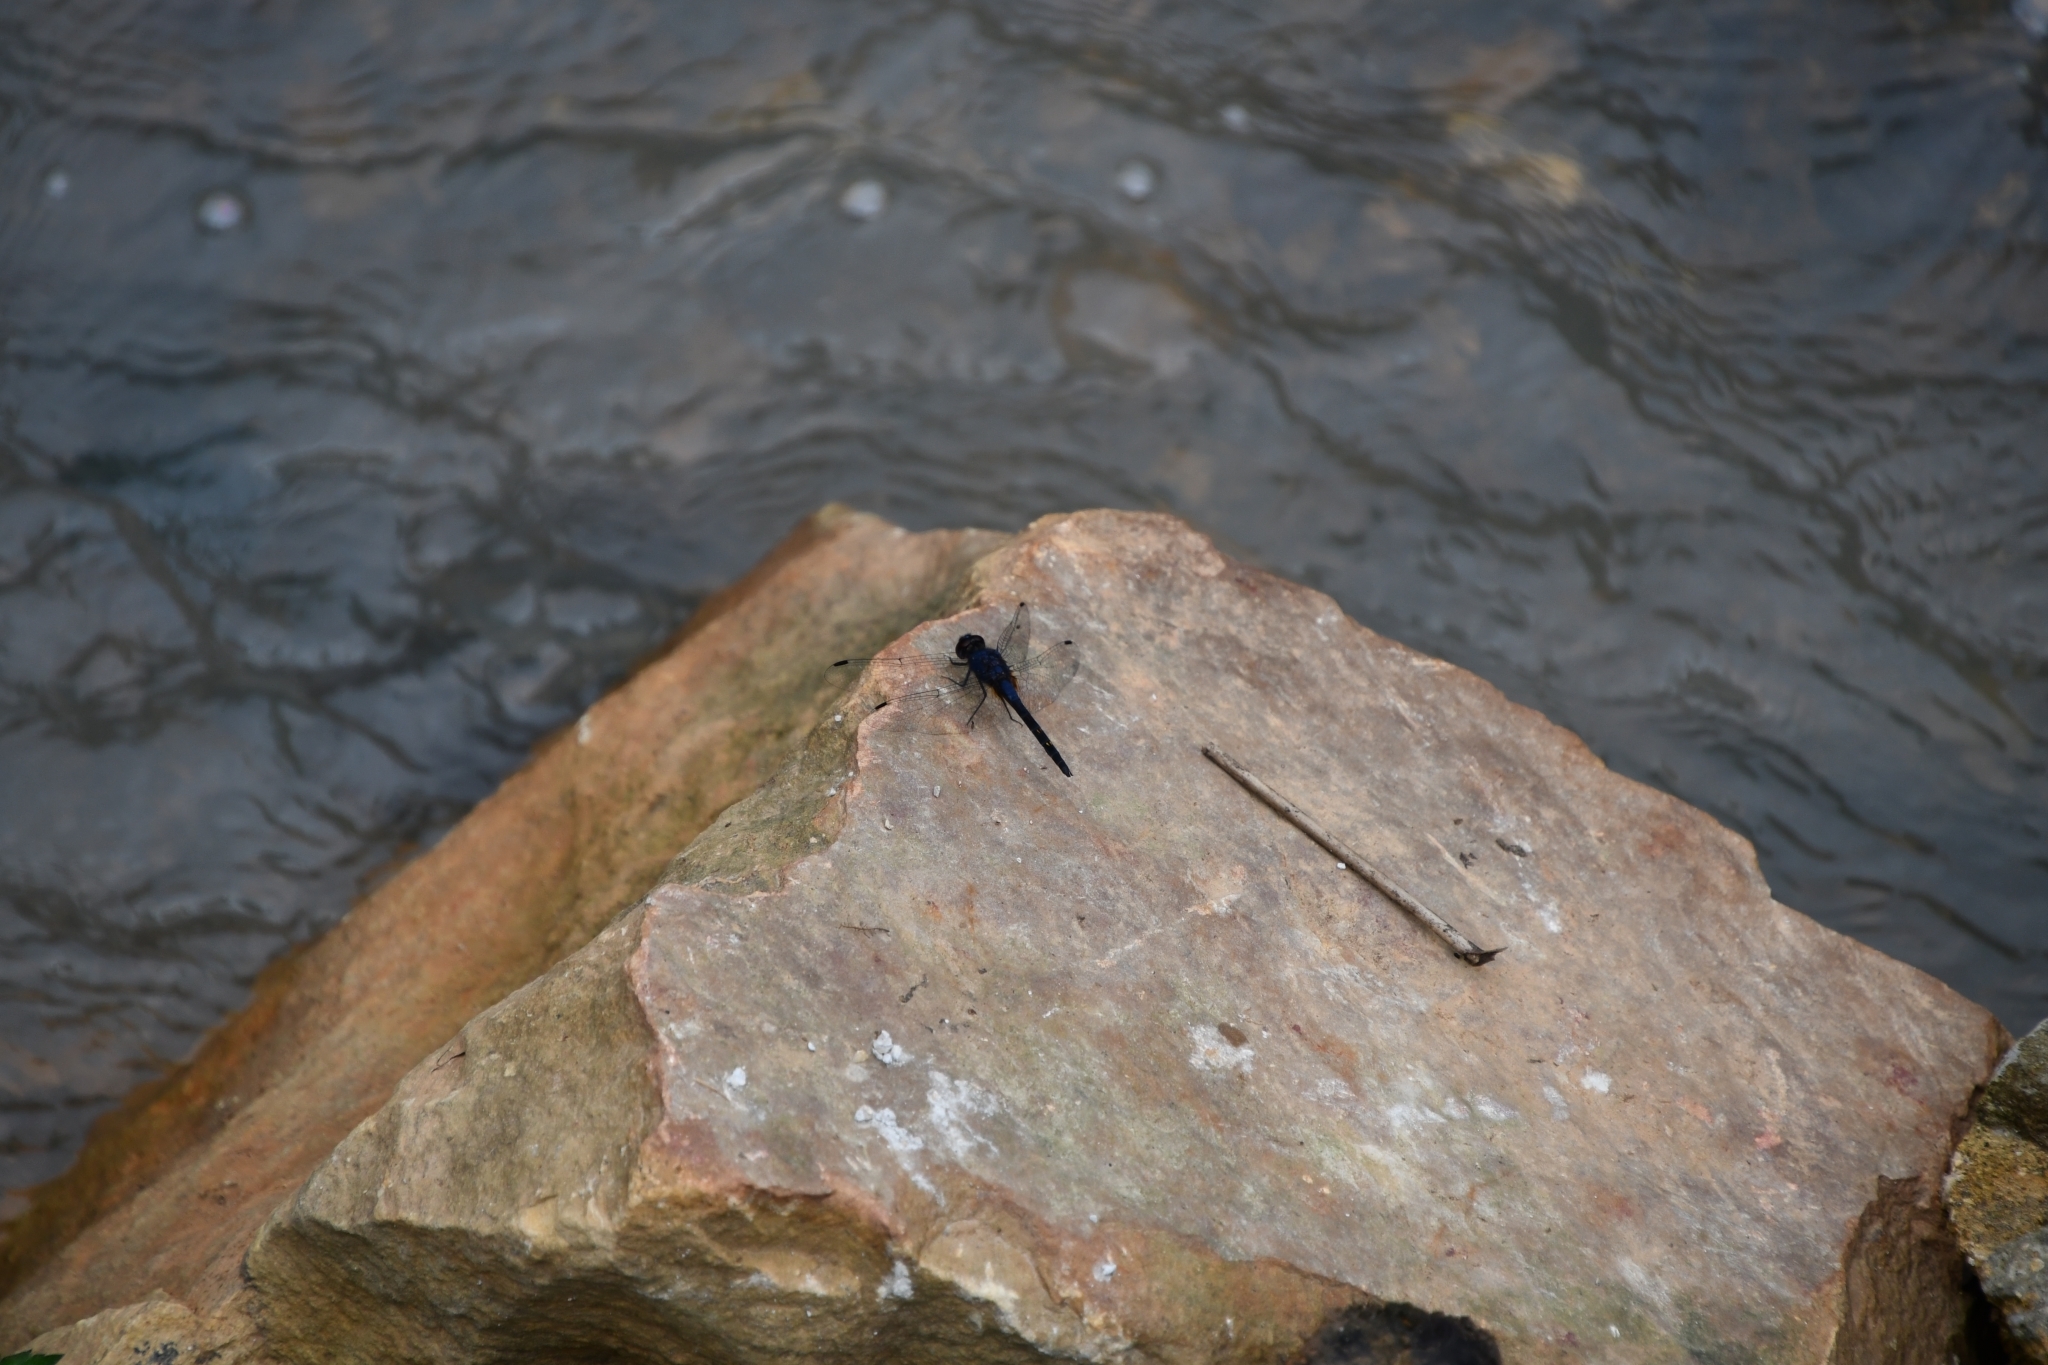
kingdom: Animalia
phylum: Arthropoda
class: Insecta
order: Odonata
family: Libellulidae
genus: Trithemis
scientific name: Trithemis festiva
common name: Indigo dropwing
